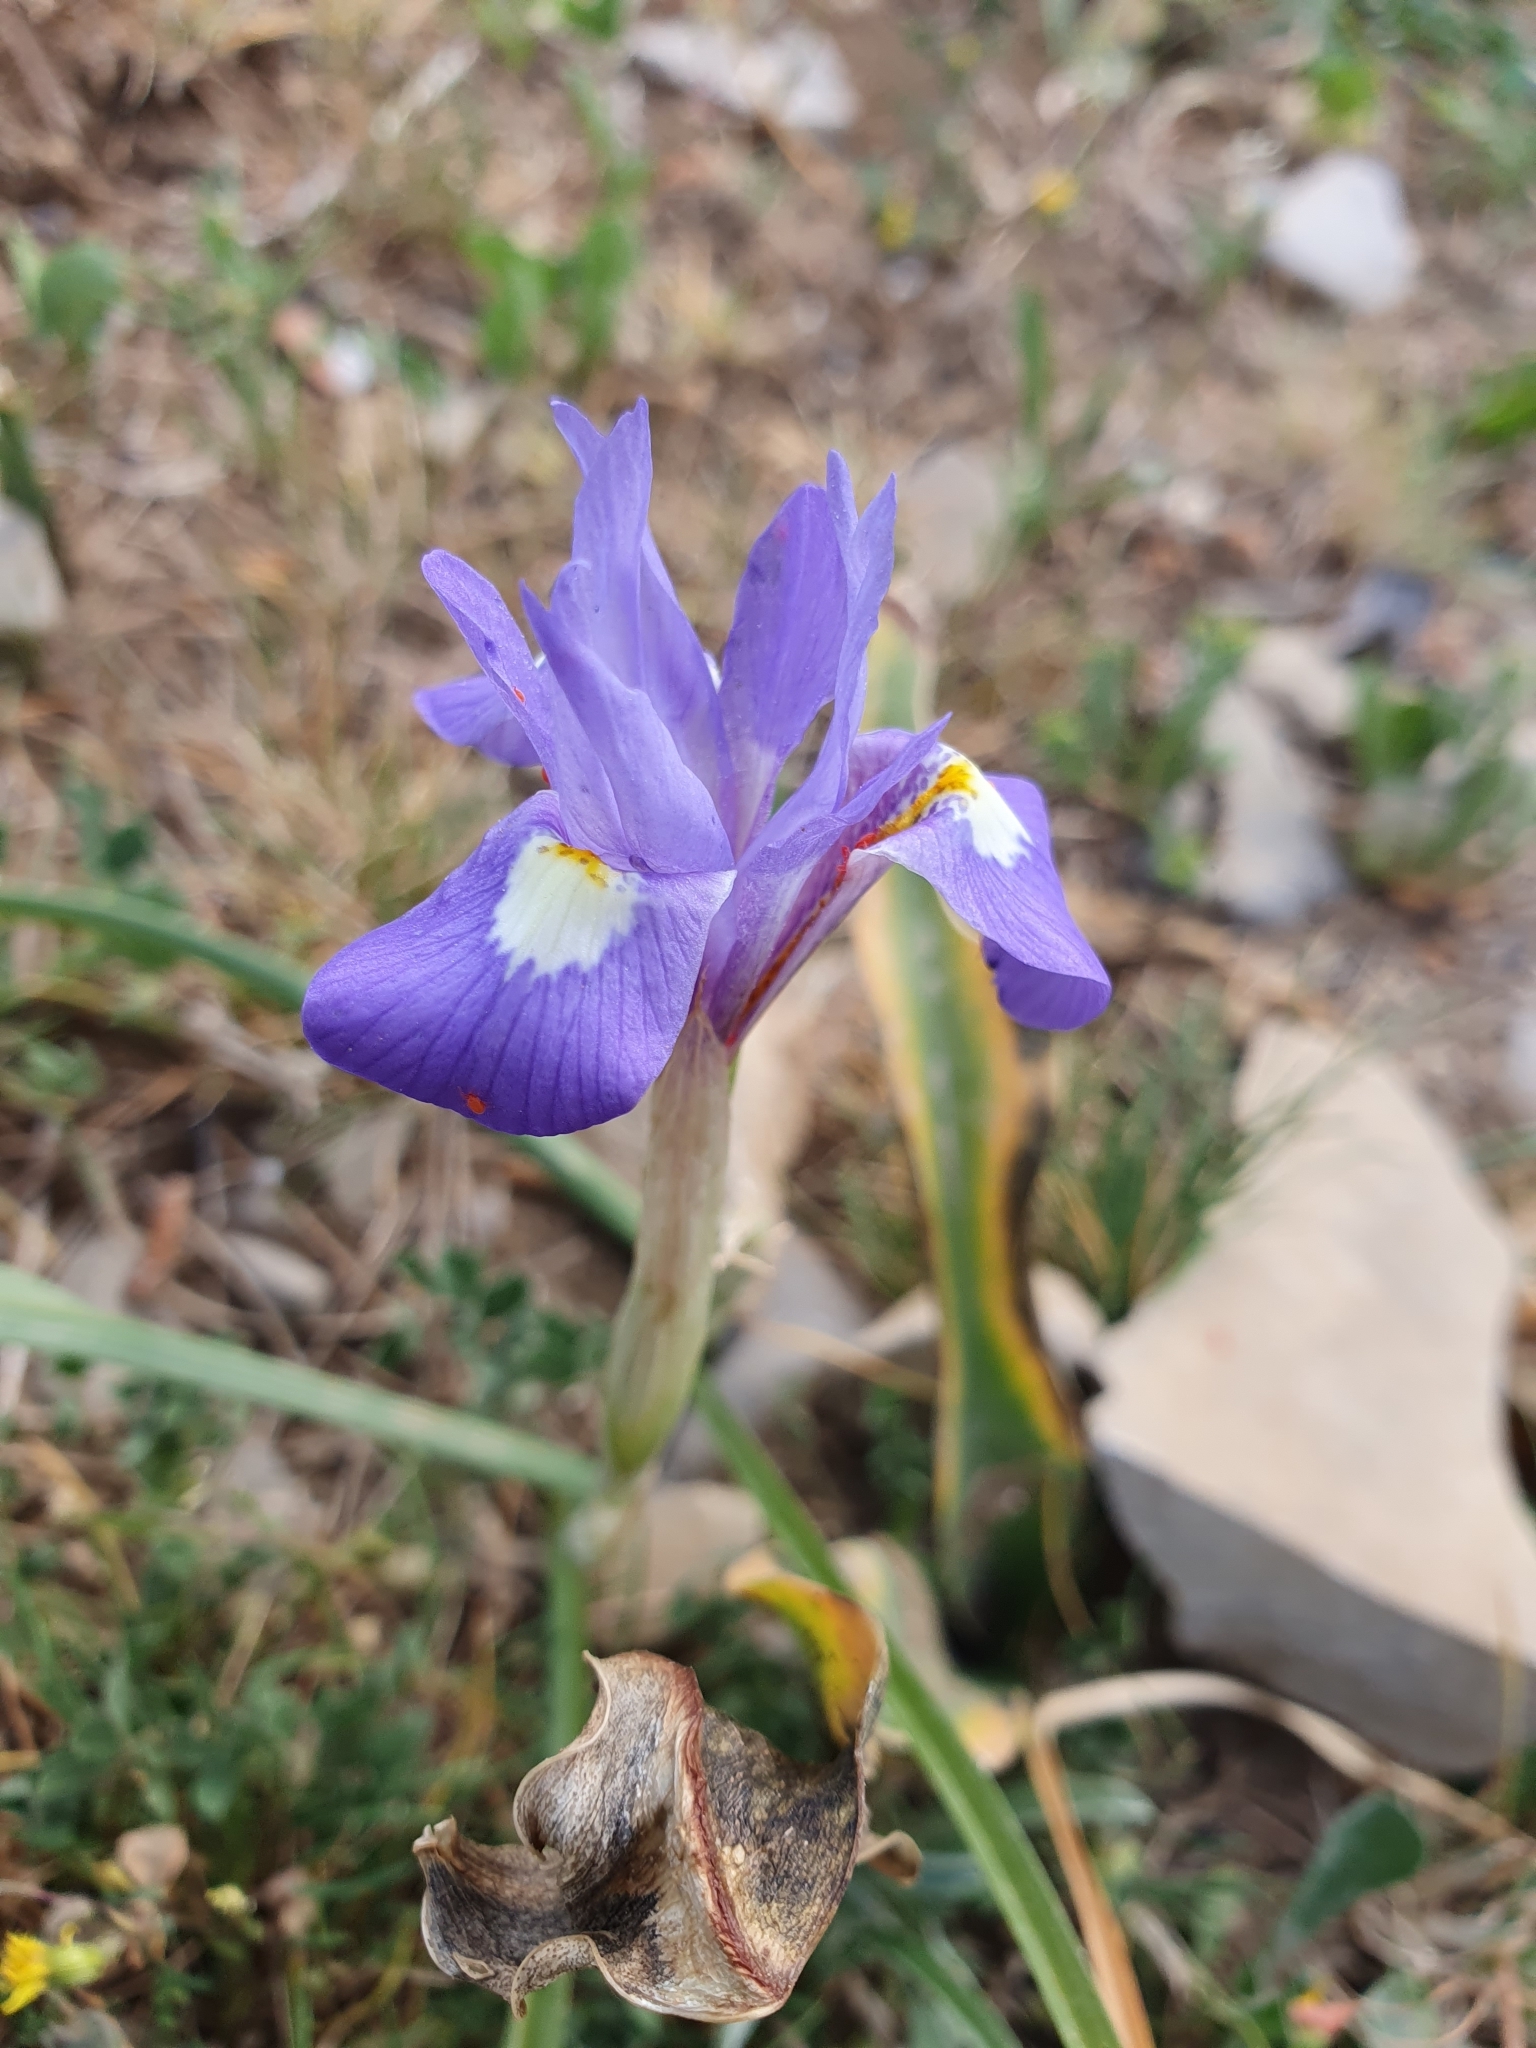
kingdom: Plantae
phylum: Tracheophyta
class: Liliopsida
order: Asparagales
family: Iridaceae
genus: Moraea
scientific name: Moraea sisyrinchium
